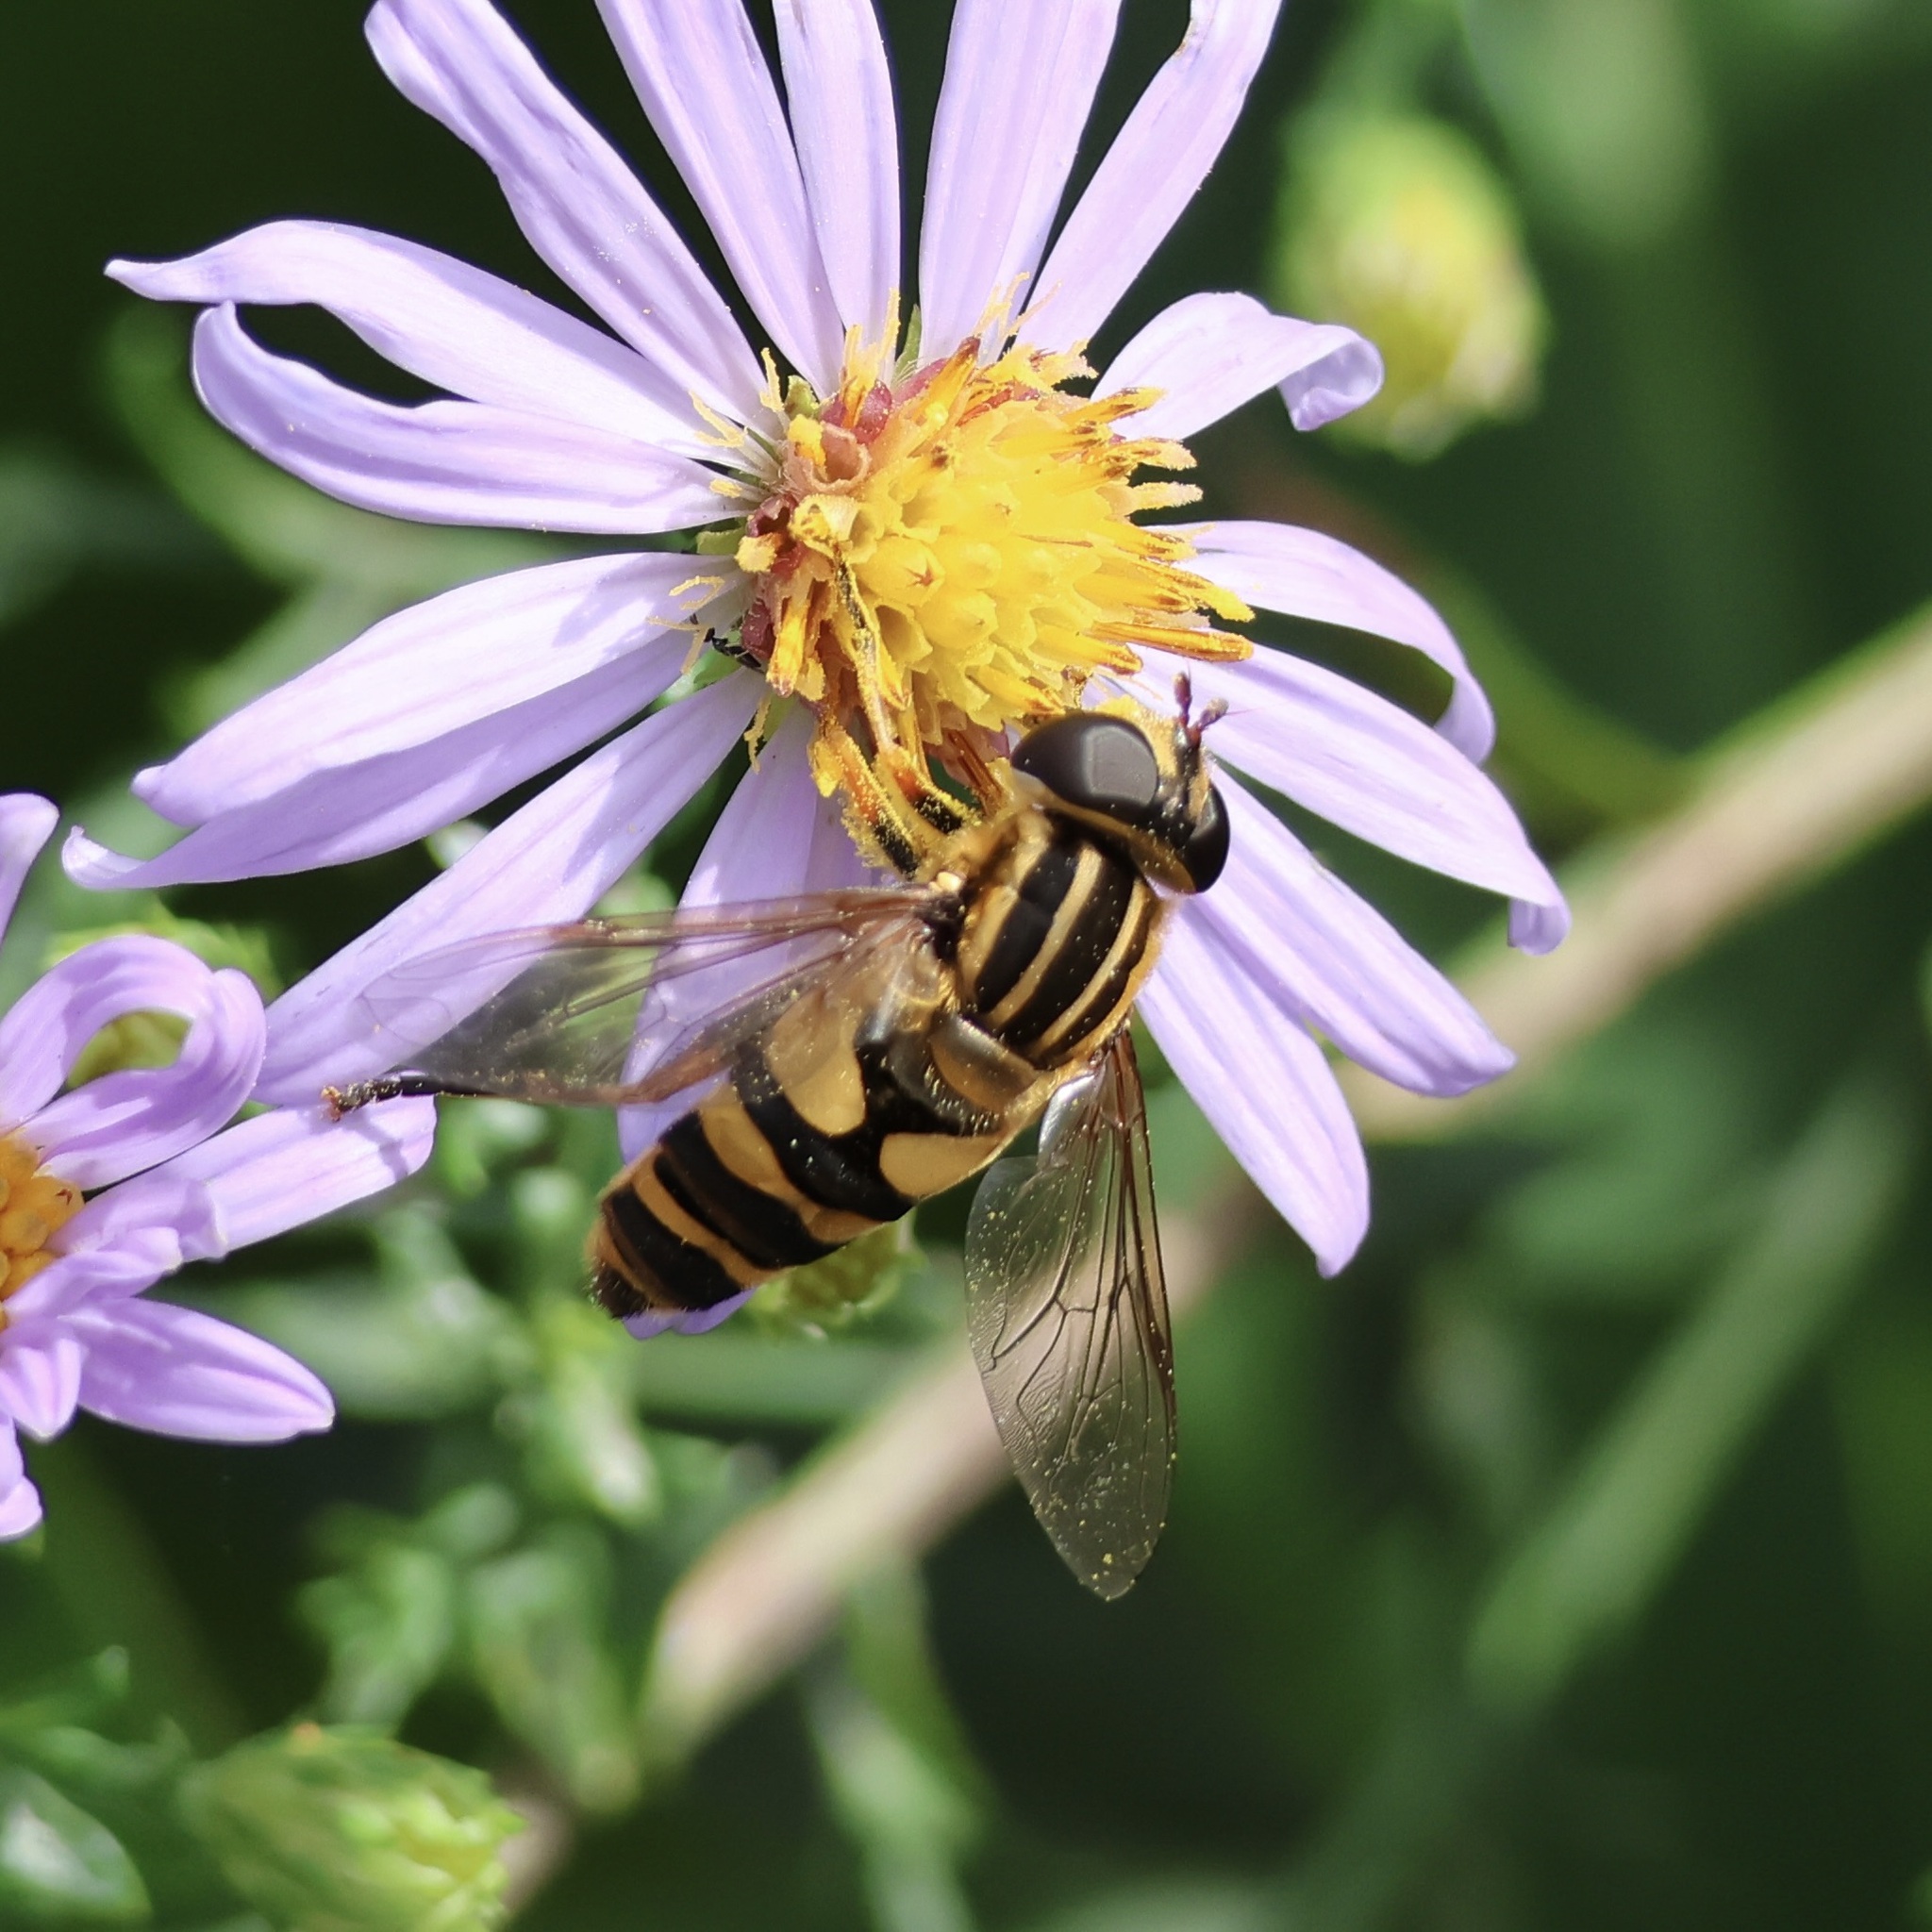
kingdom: Animalia
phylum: Arthropoda
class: Insecta
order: Diptera
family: Syrphidae
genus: Helophilus
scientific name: Helophilus fasciatus
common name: Narrow-headed marsh fly
